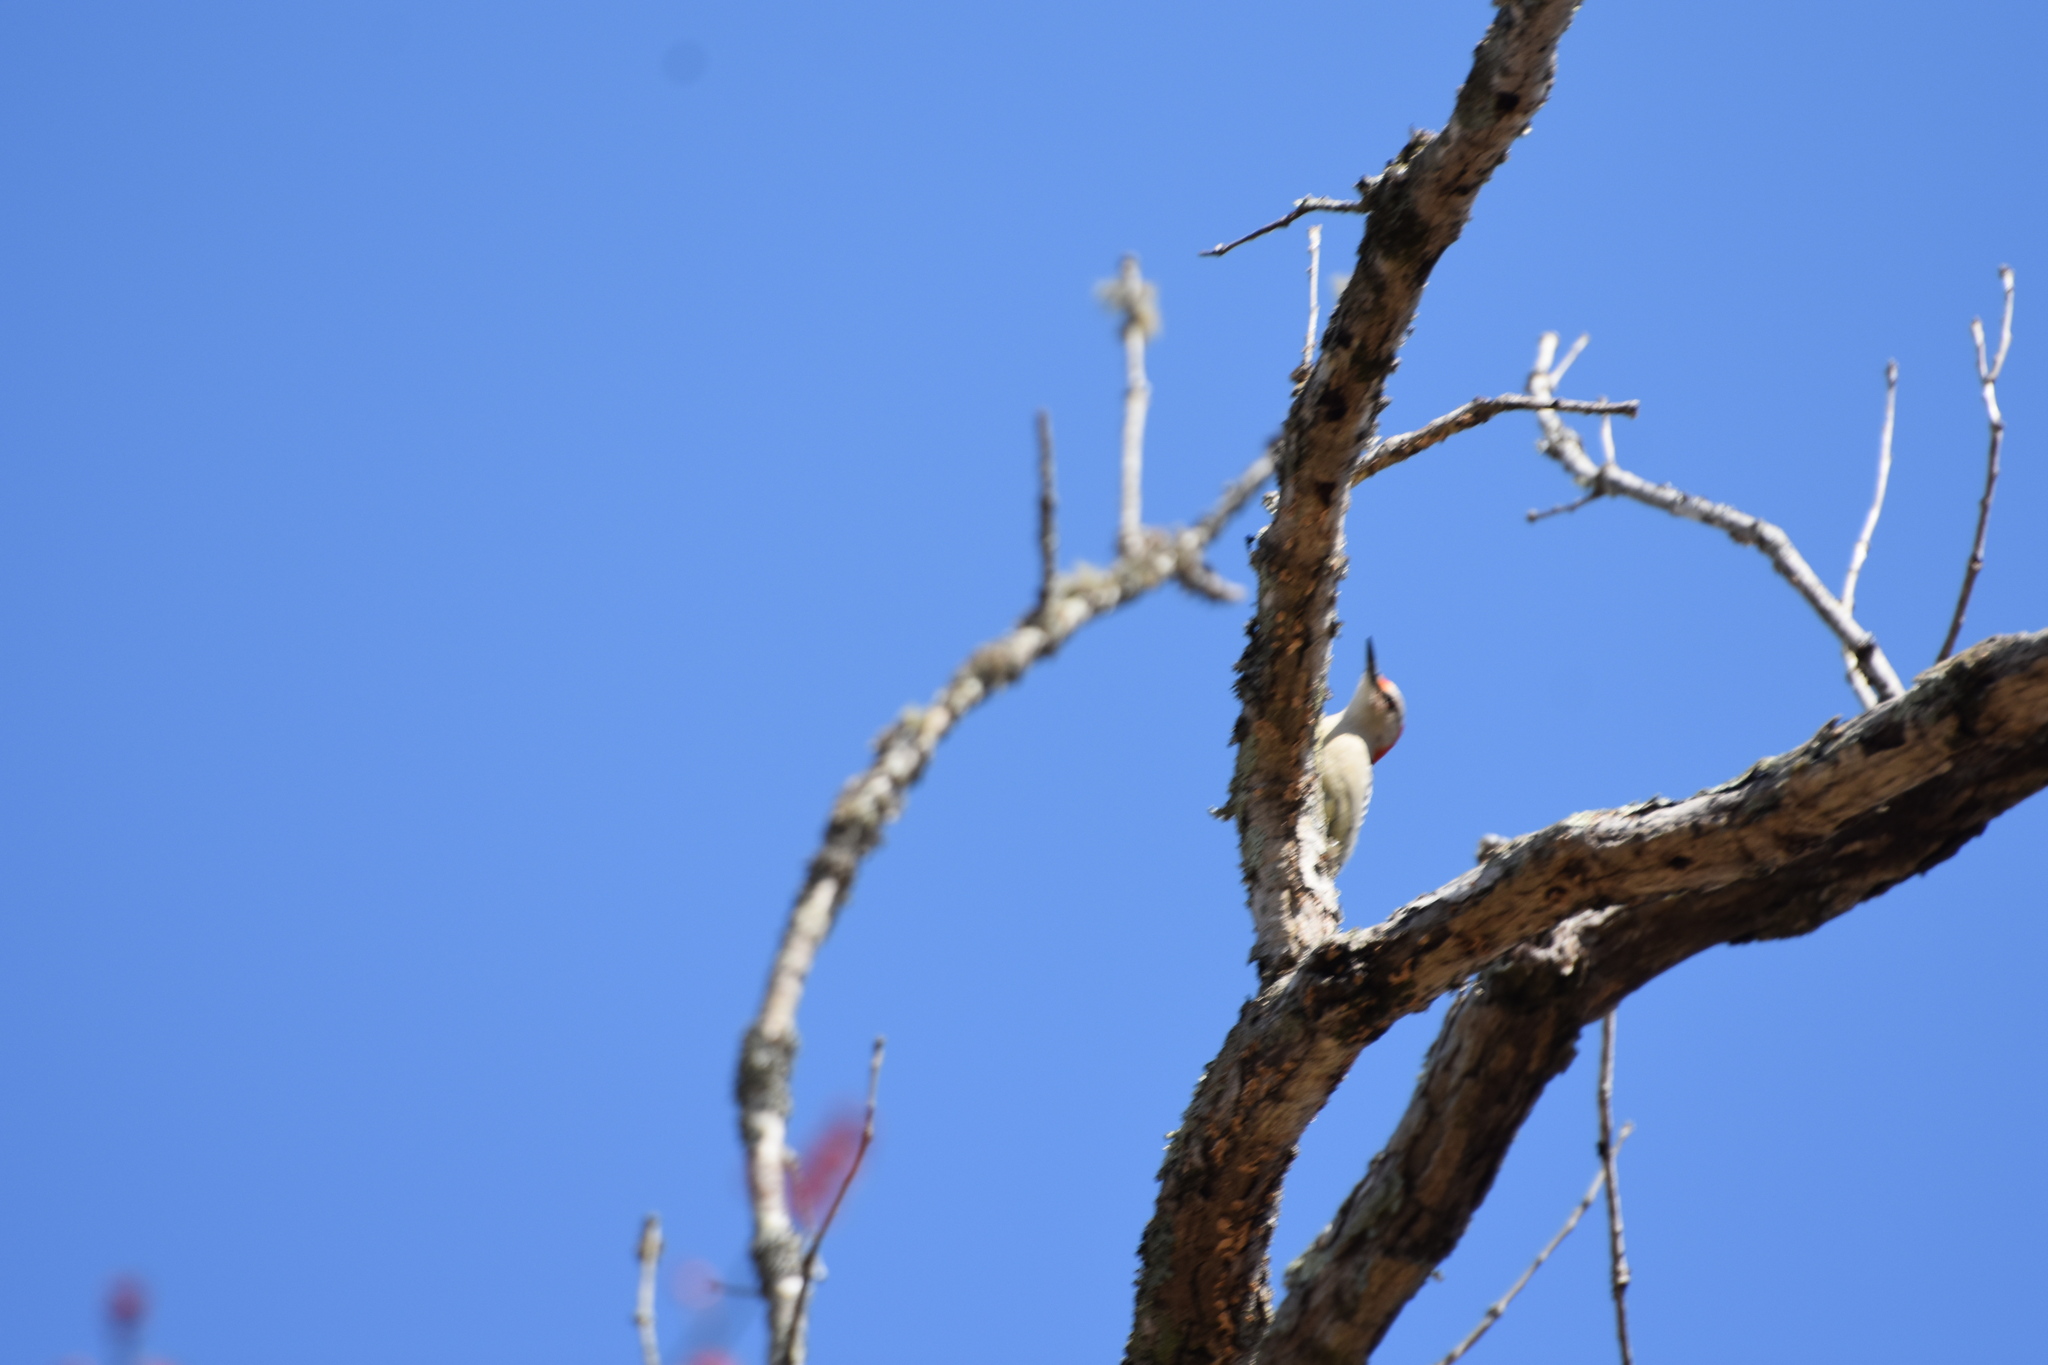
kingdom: Animalia
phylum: Chordata
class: Aves
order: Piciformes
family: Picidae
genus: Melanerpes
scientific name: Melanerpes carolinus
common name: Red-bellied woodpecker
